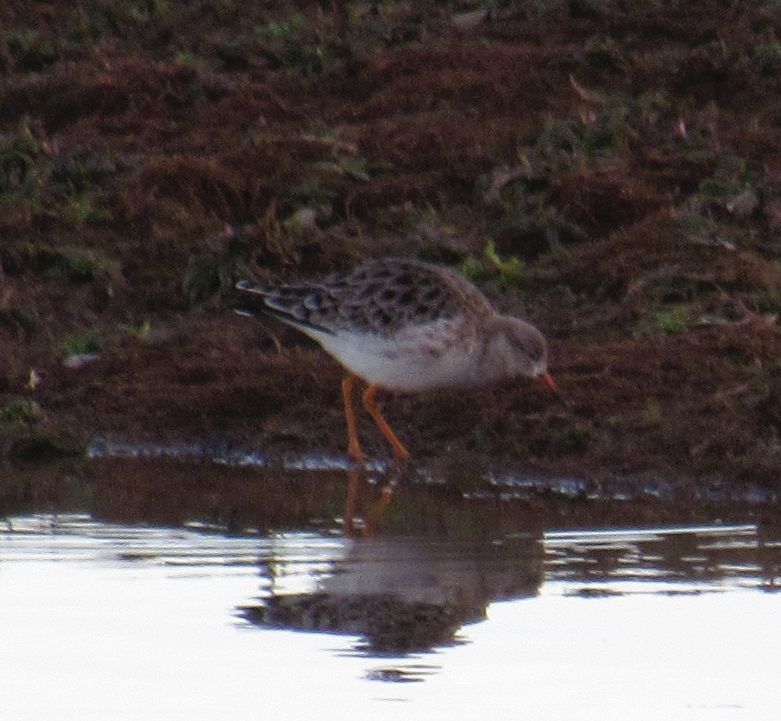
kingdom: Animalia
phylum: Chordata
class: Aves
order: Charadriiformes
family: Scolopacidae
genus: Calidris
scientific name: Calidris pugnax
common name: Ruff
